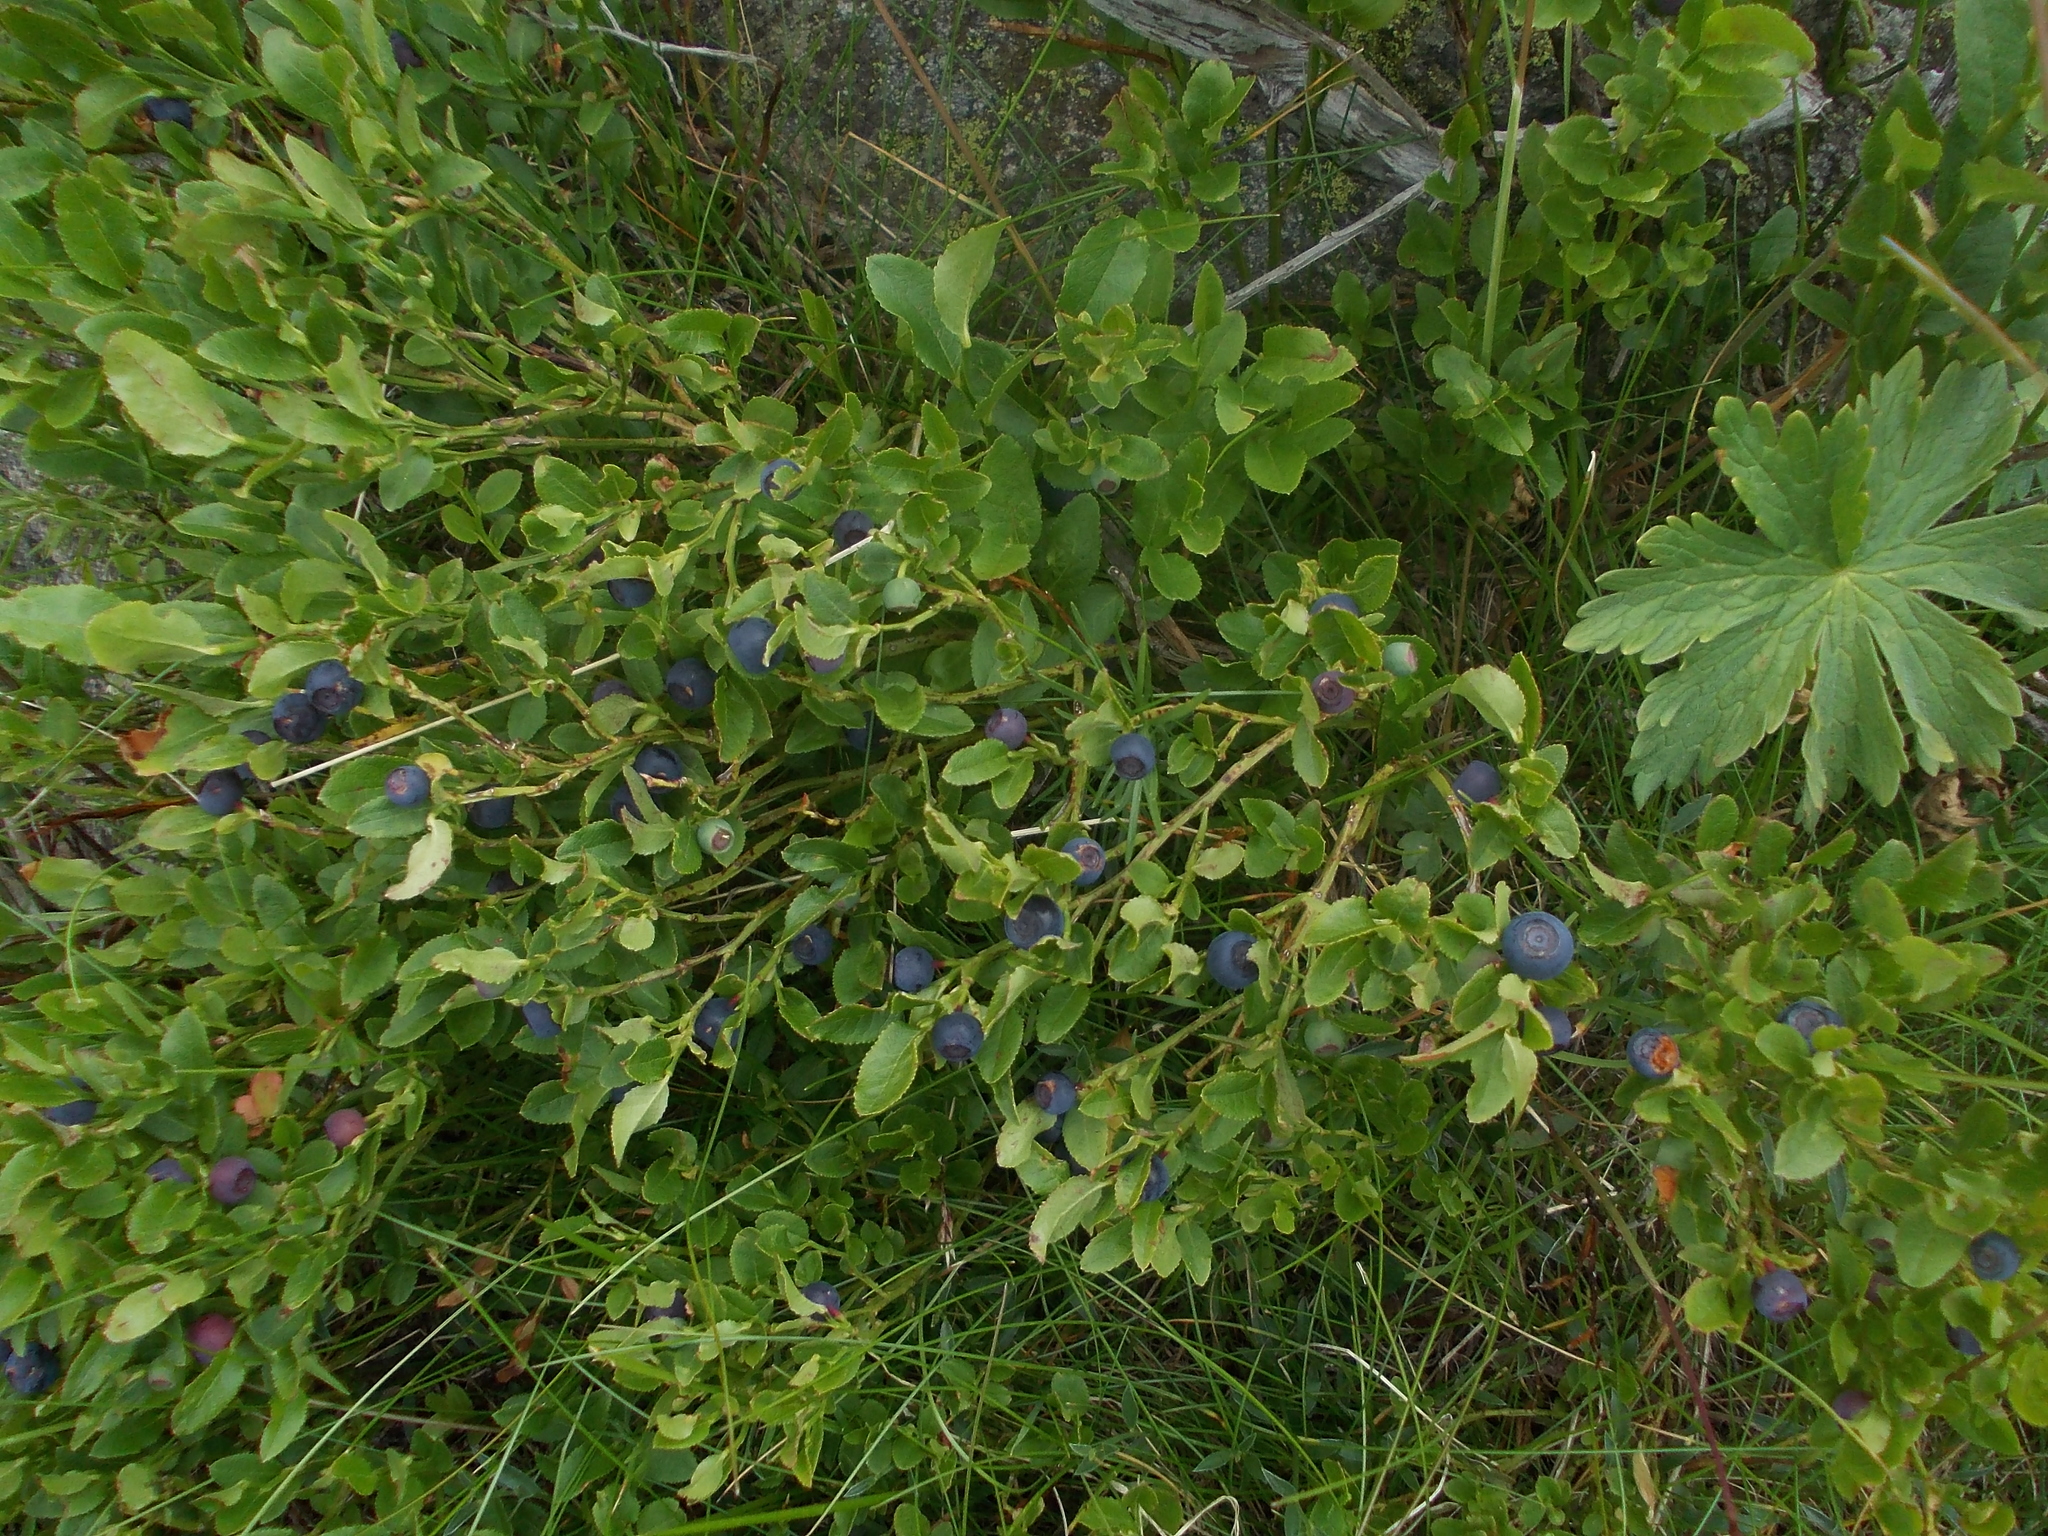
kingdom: Plantae
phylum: Tracheophyta
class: Magnoliopsida
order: Ericales
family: Ericaceae
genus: Vaccinium
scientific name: Vaccinium myrtillus
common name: Bilberry
